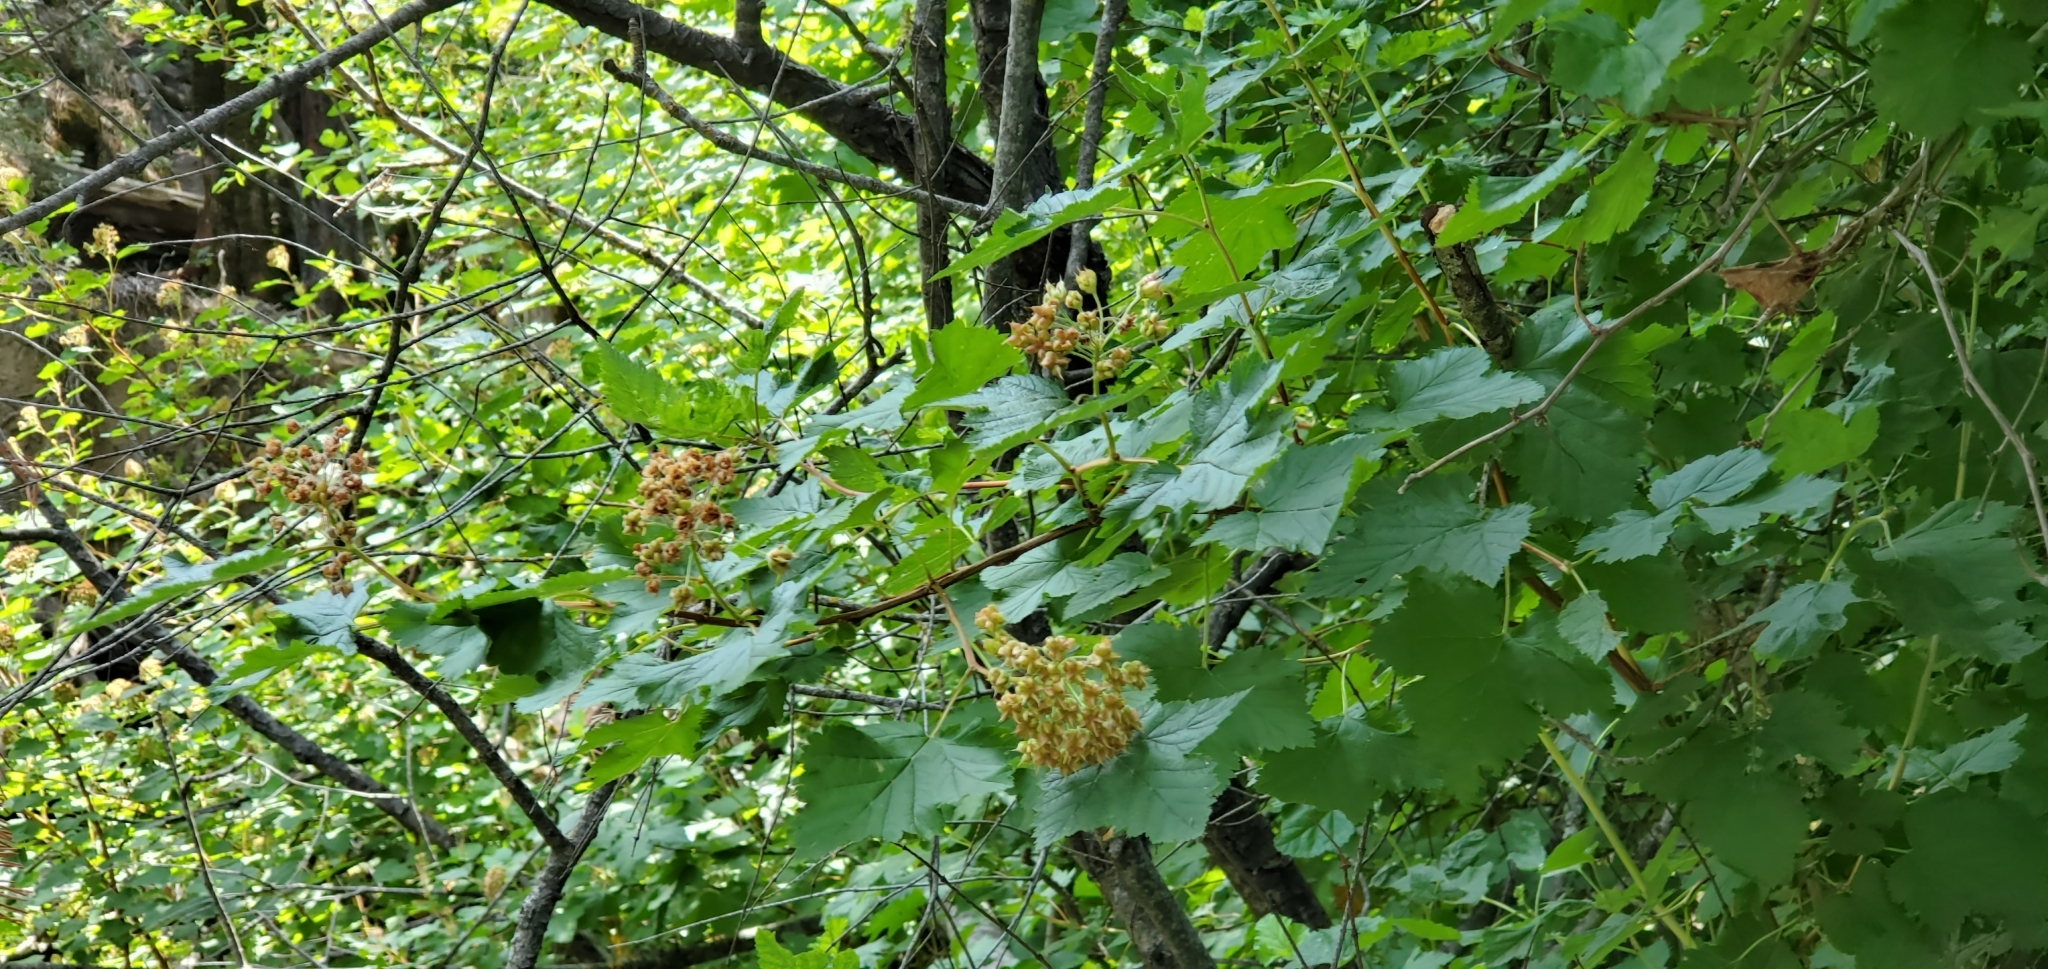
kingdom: Plantae
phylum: Tracheophyta
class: Magnoliopsida
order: Rosales
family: Rosaceae
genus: Physocarpus
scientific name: Physocarpus capitatus
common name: Pacific ninebark
